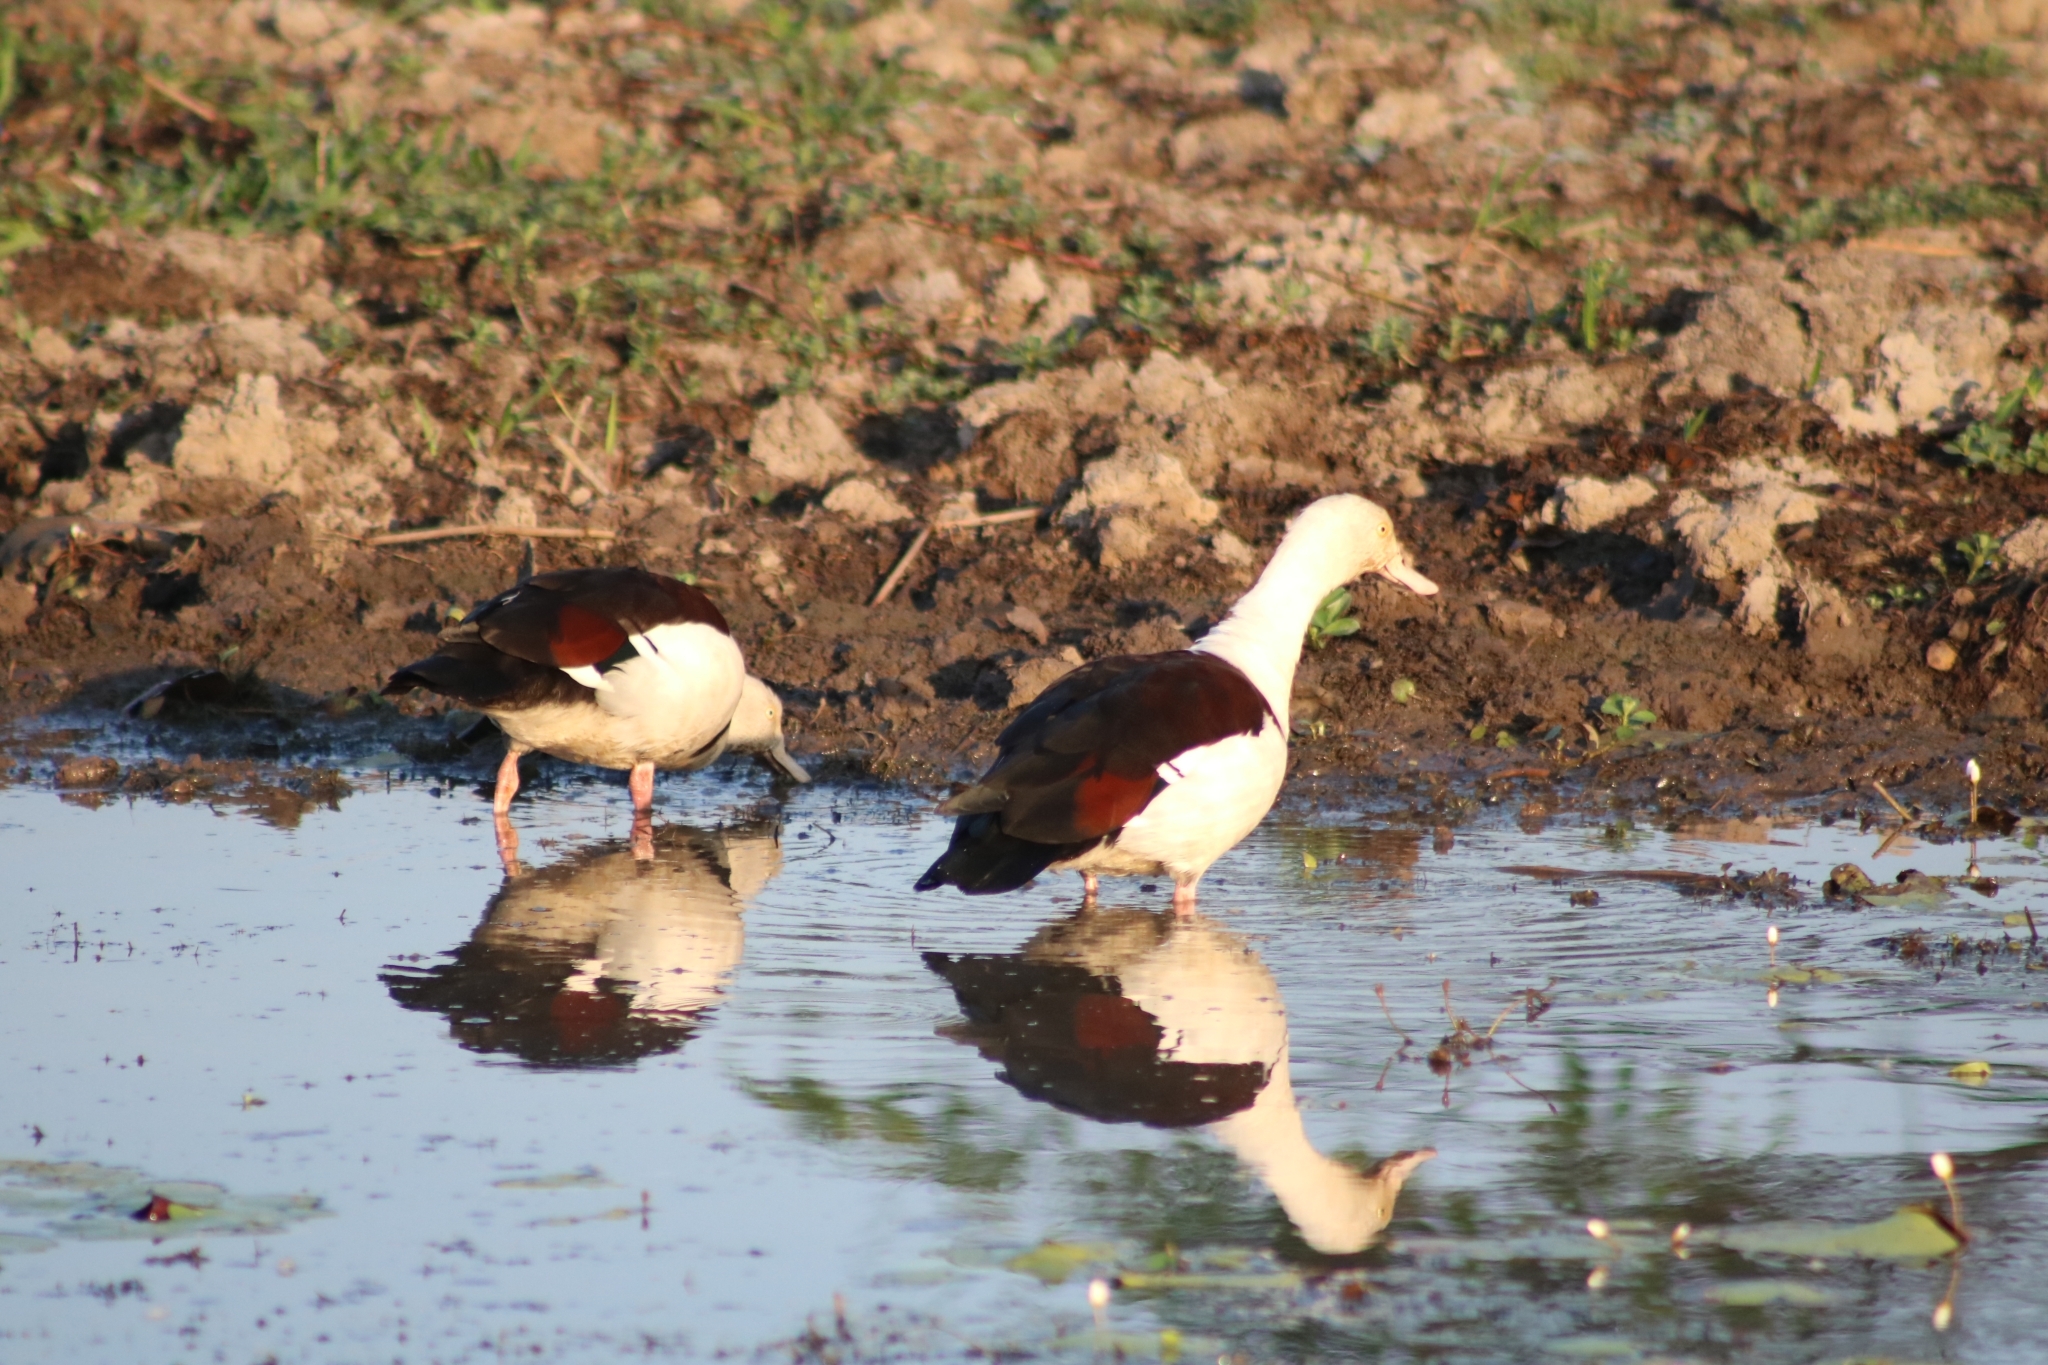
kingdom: Animalia
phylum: Chordata
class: Aves
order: Anseriformes
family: Anatidae
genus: Radjah
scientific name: Radjah radjah
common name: Radjah shelduck
